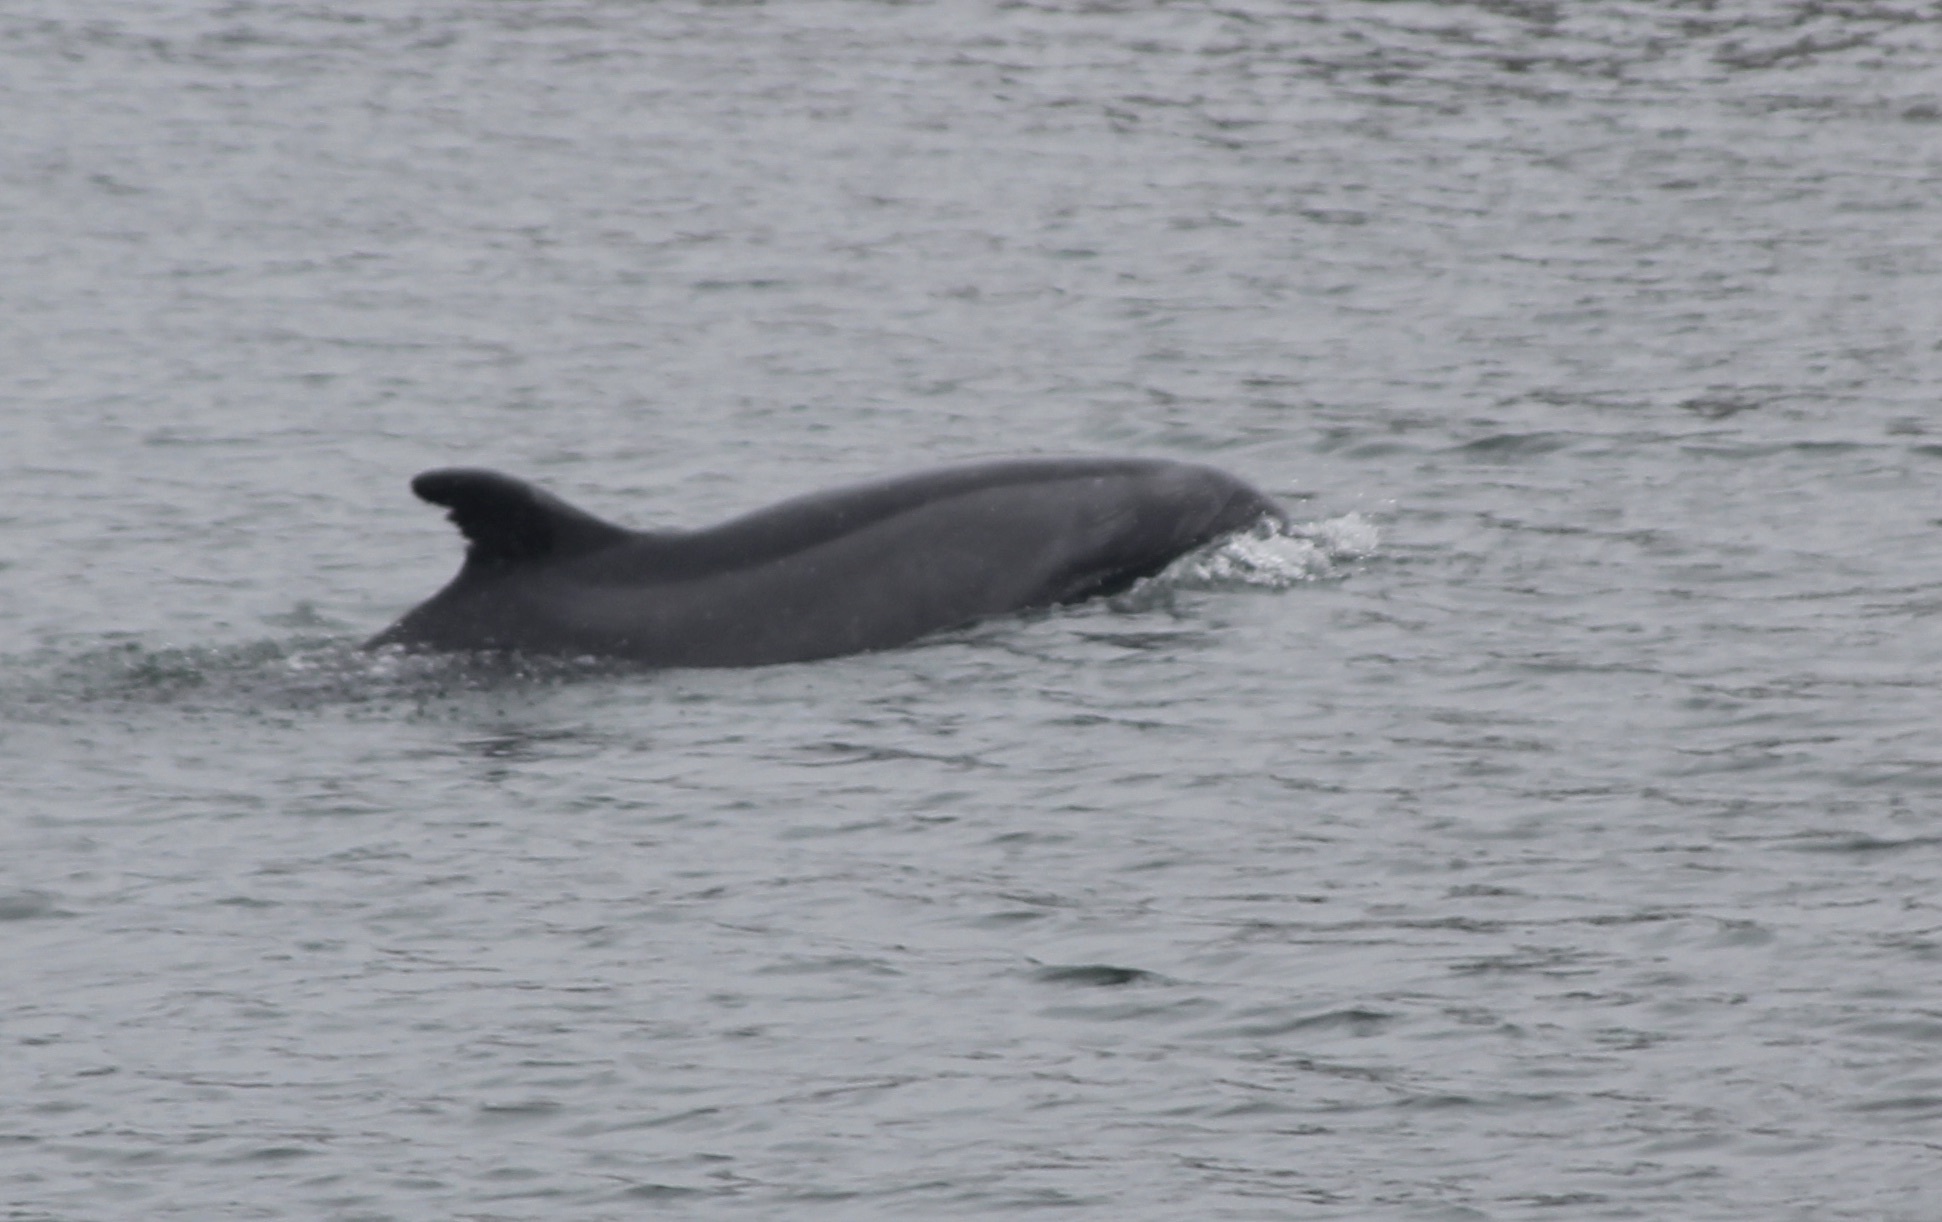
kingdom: Animalia
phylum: Chordata
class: Mammalia
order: Cetacea
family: Delphinidae
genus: Tursiops
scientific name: Tursiops truncatus
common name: Bottlenose dolphin
